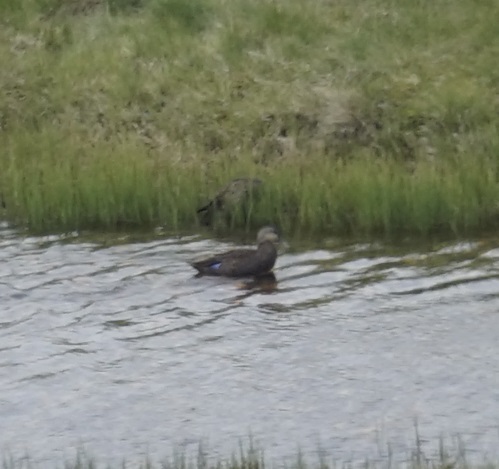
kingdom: Animalia
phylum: Chordata
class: Aves
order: Anseriformes
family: Anatidae
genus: Anas
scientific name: Anas superciliosa
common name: Pacific black duck
